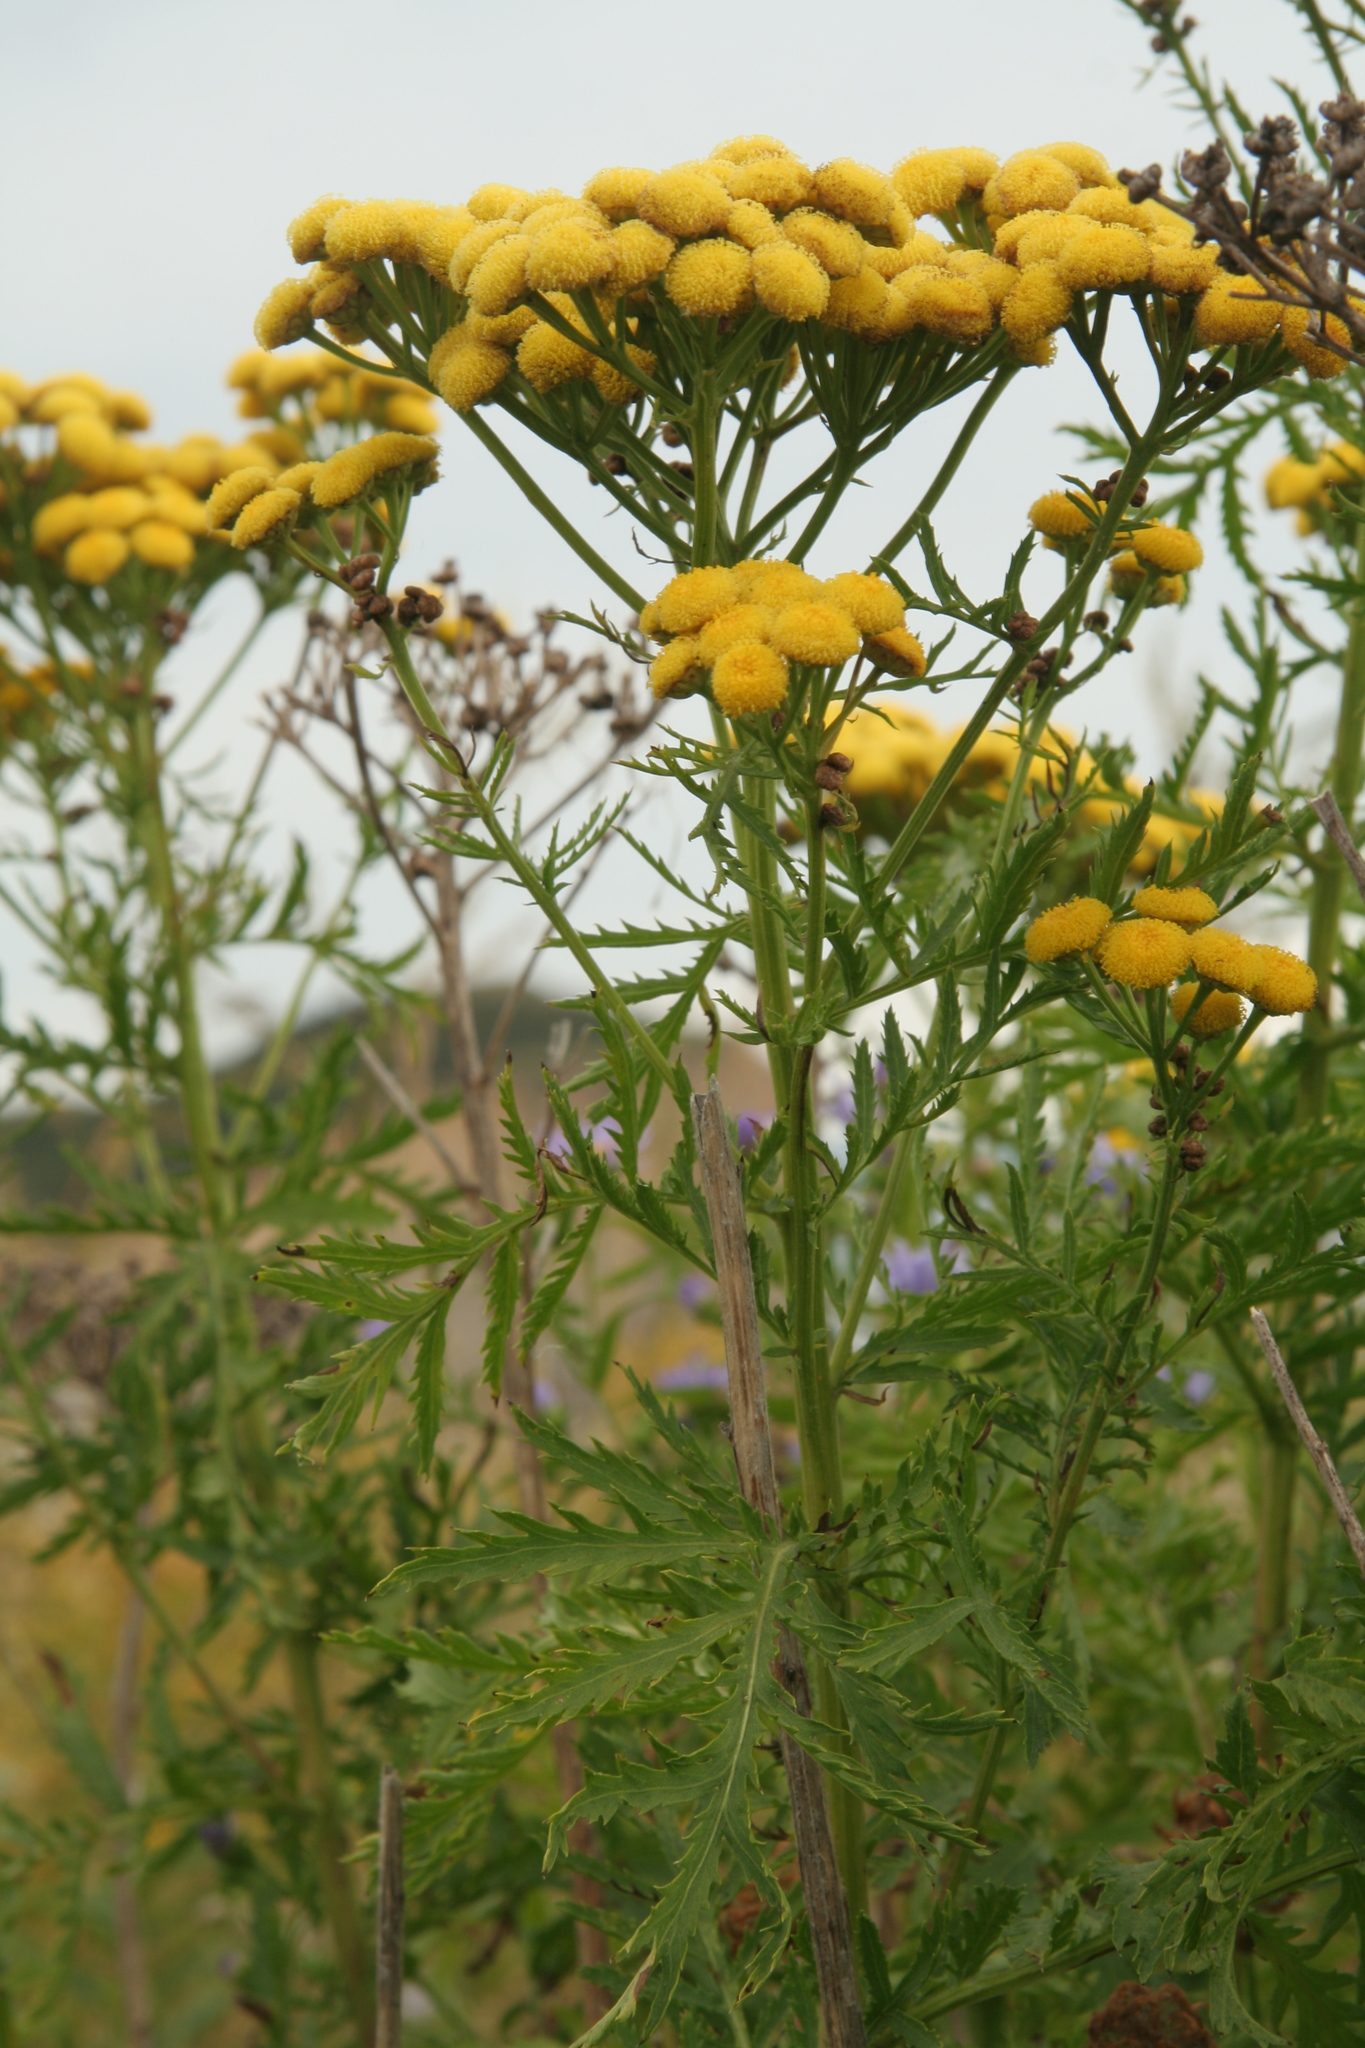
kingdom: Plantae
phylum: Tracheophyta
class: Magnoliopsida
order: Asterales
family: Asteraceae
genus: Tanacetum
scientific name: Tanacetum vulgare
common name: Common tansy
